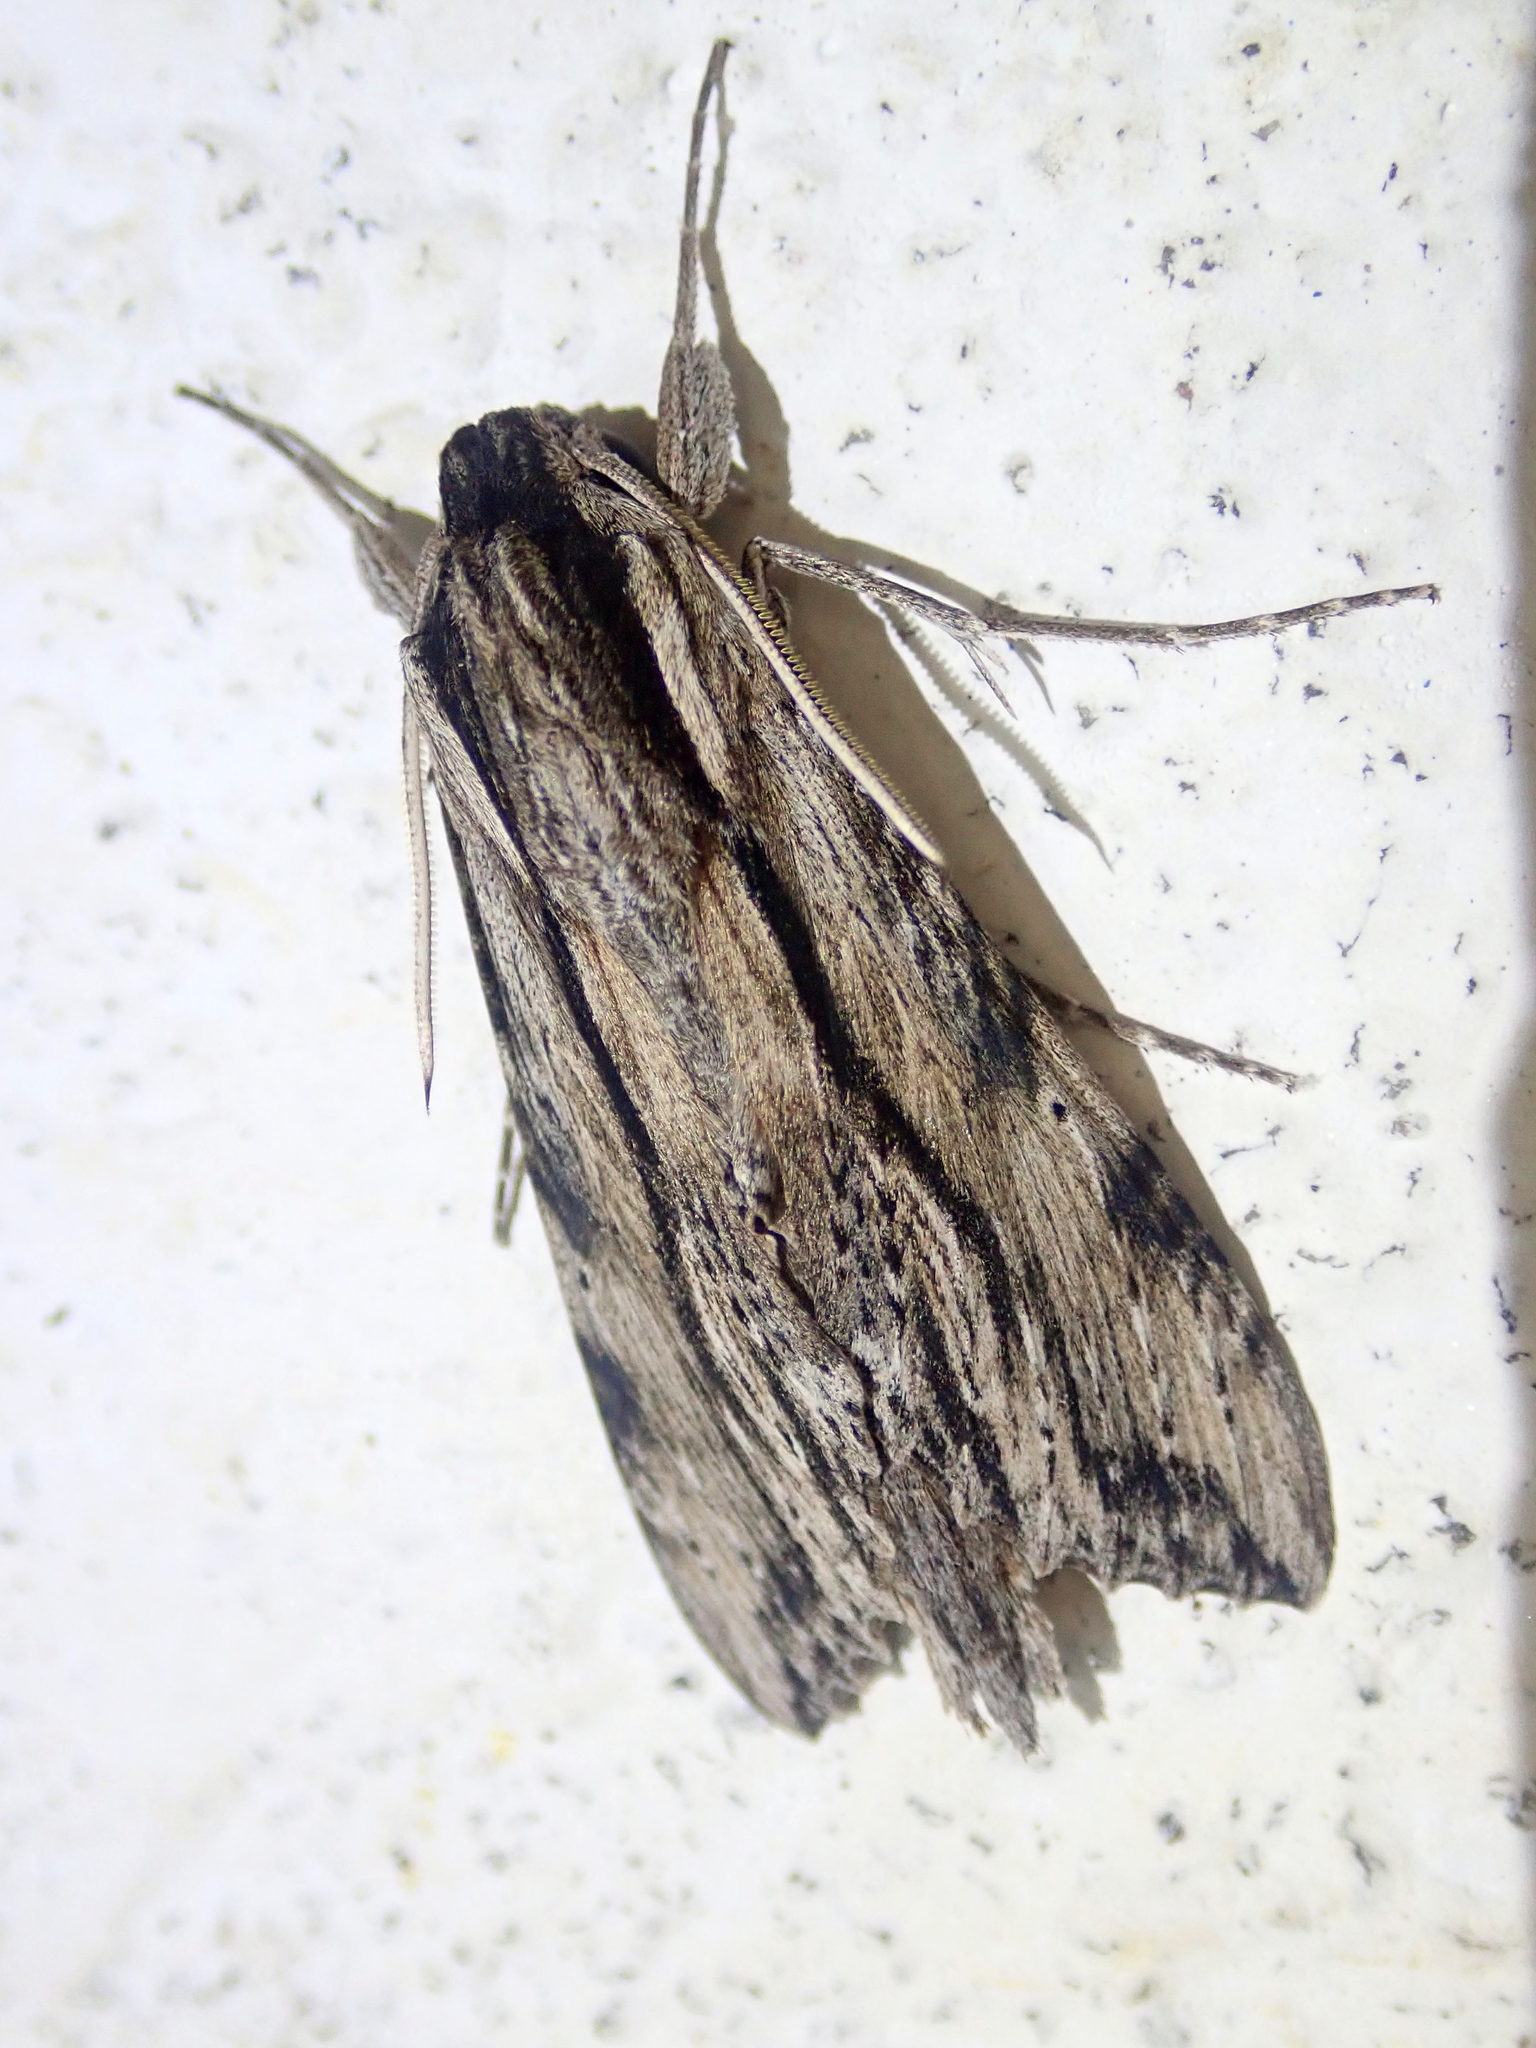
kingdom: Animalia
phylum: Arthropoda
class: Insecta
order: Lepidoptera
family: Sphingidae
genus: Erinnyis
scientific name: Erinnyis obscura
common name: Obscure sphinx
